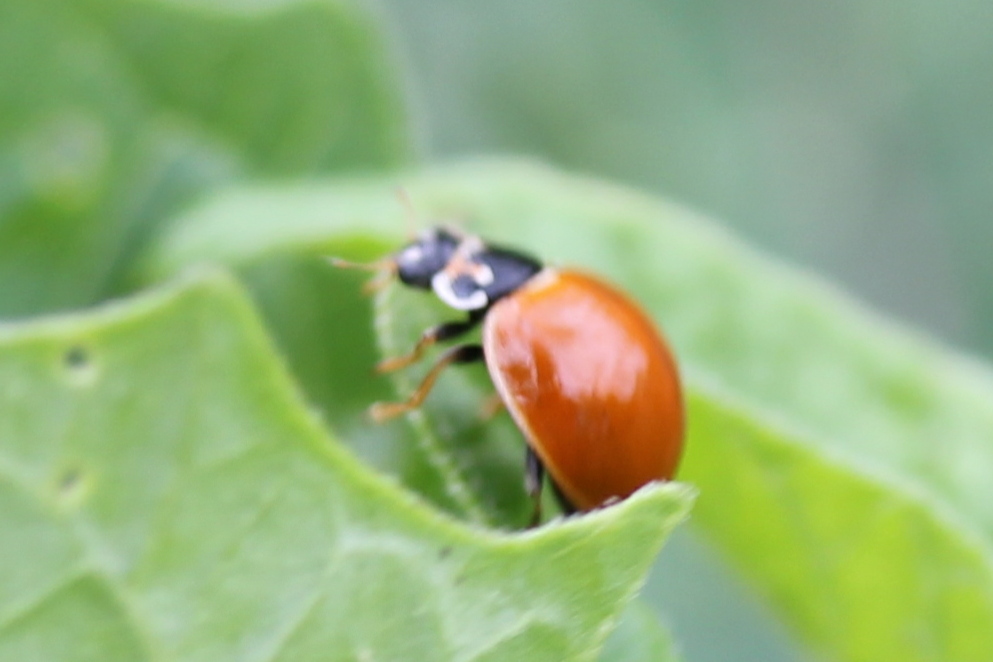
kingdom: Animalia
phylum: Arthropoda
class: Insecta
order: Coleoptera
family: Coccinellidae
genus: Cycloneda
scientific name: Cycloneda munda
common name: Polished lady beetle
